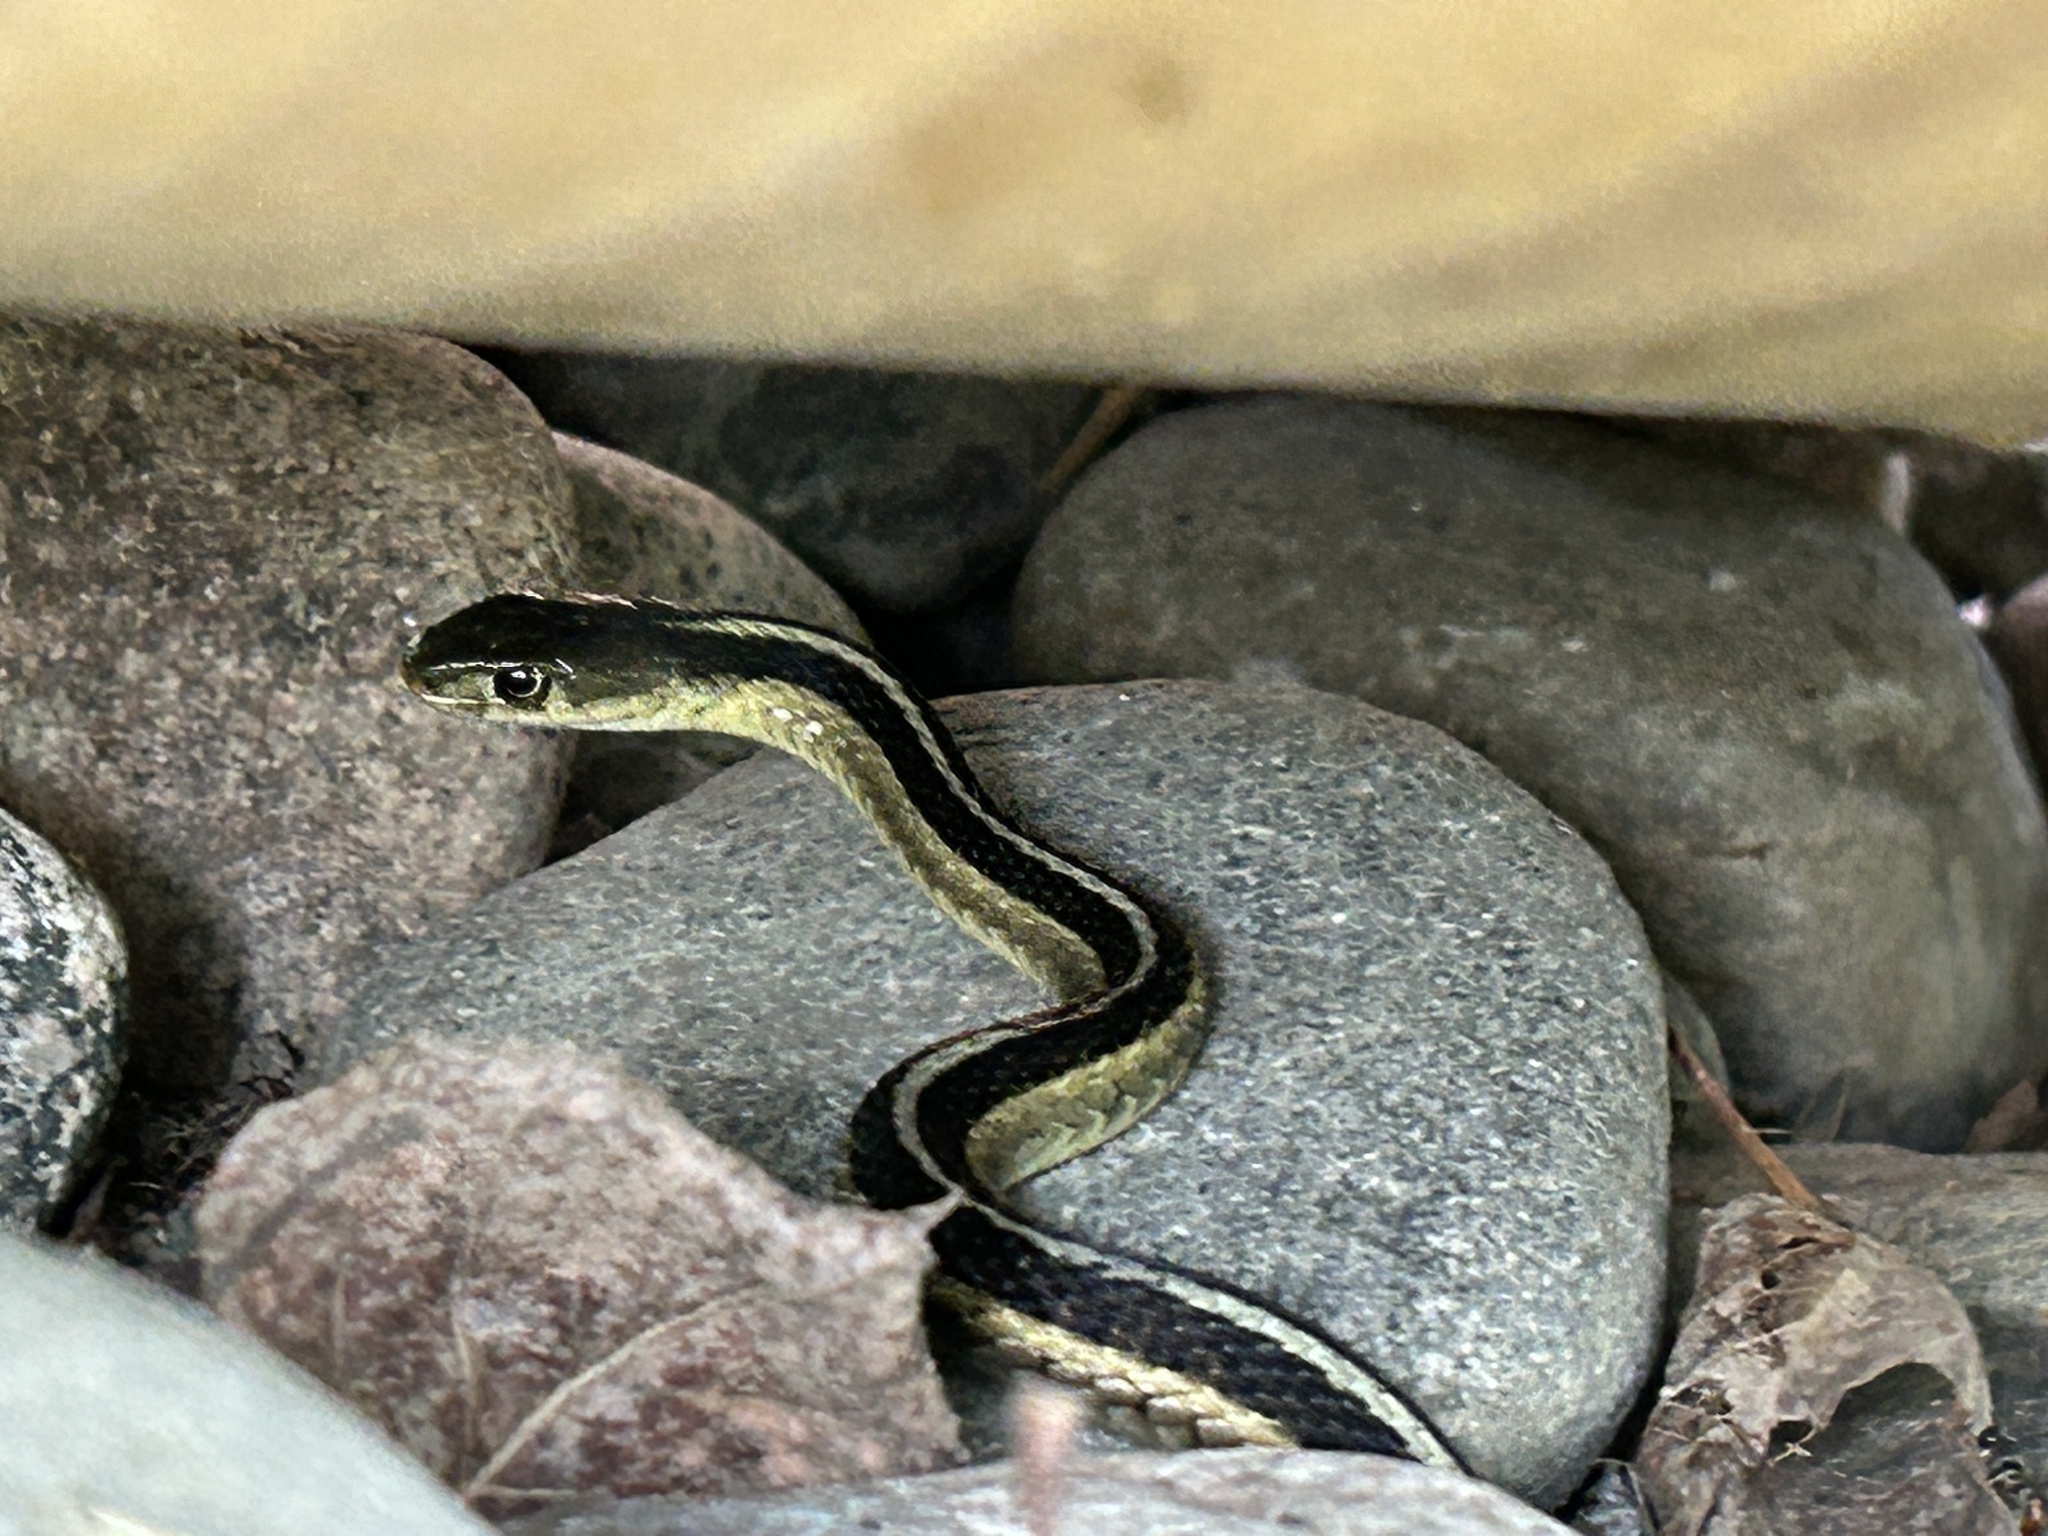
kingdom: Animalia
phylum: Chordata
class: Squamata
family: Colubridae
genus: Thamnophis
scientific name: Thamnophis sirtalis
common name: Common garter snake
